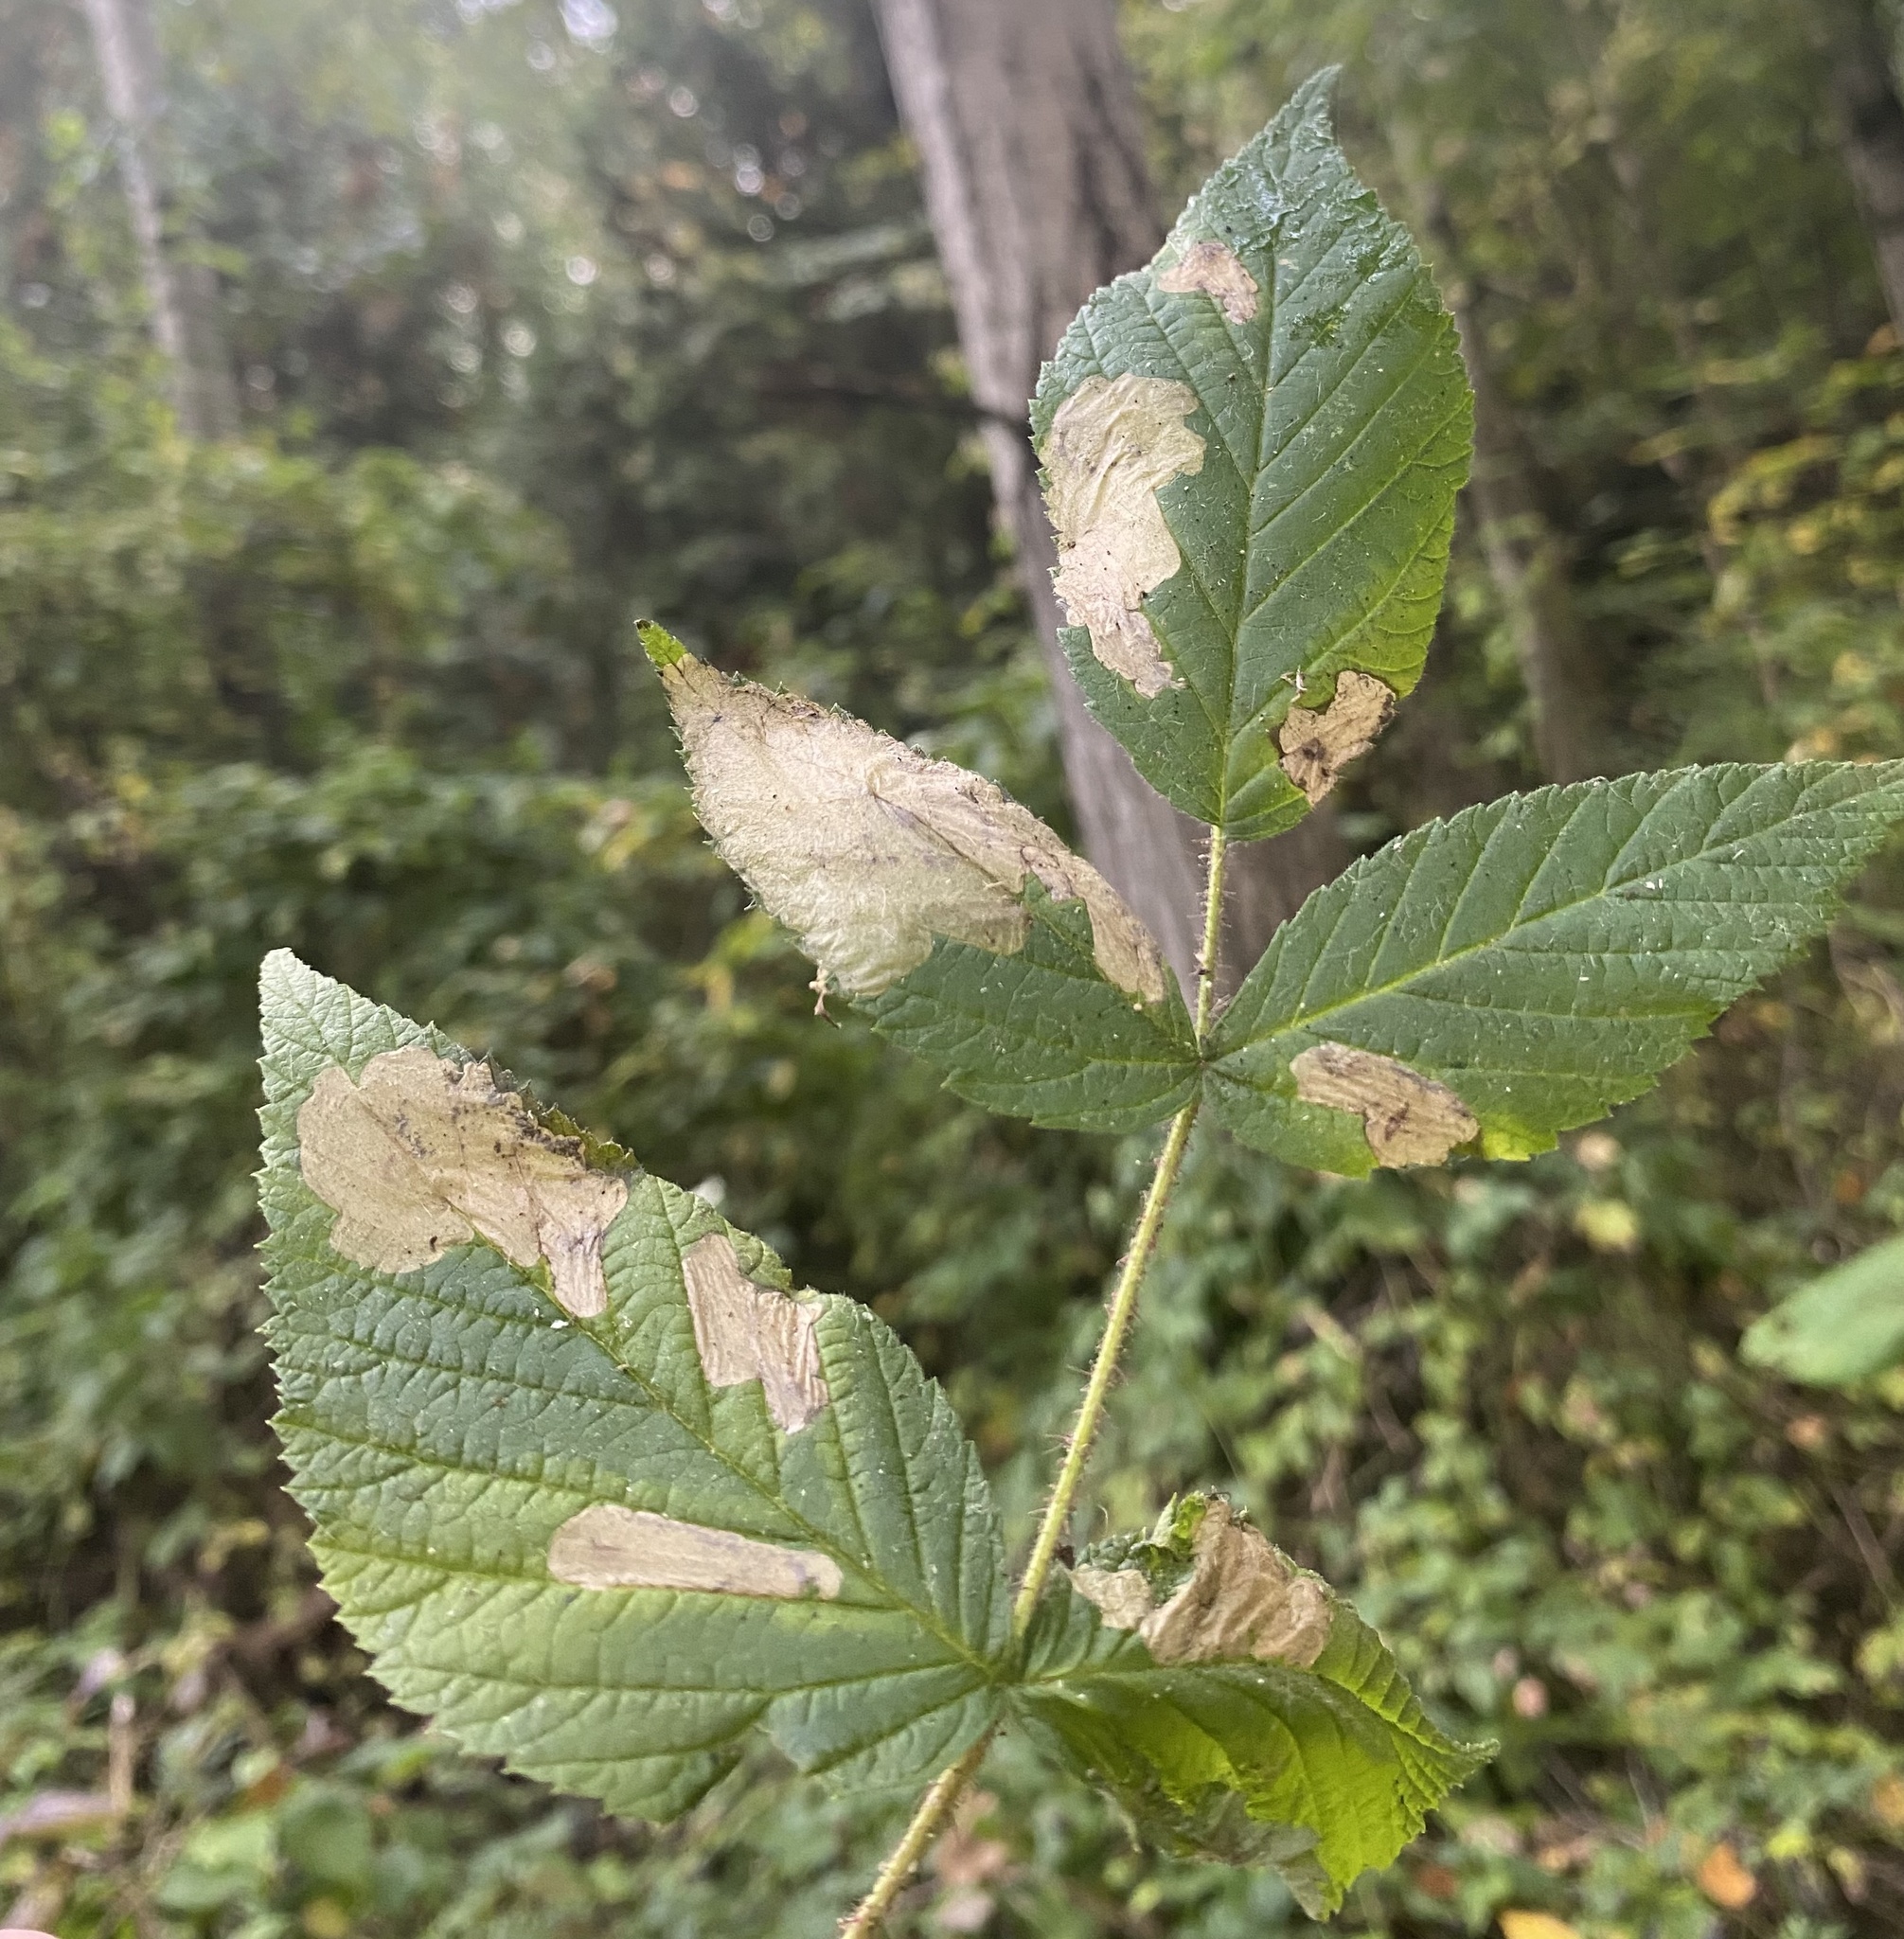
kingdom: Animalia
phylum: Arthropoda
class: Insecta
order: Hymenoptera
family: Tenthredinidae
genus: Metallus
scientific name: Metallus capitalis
